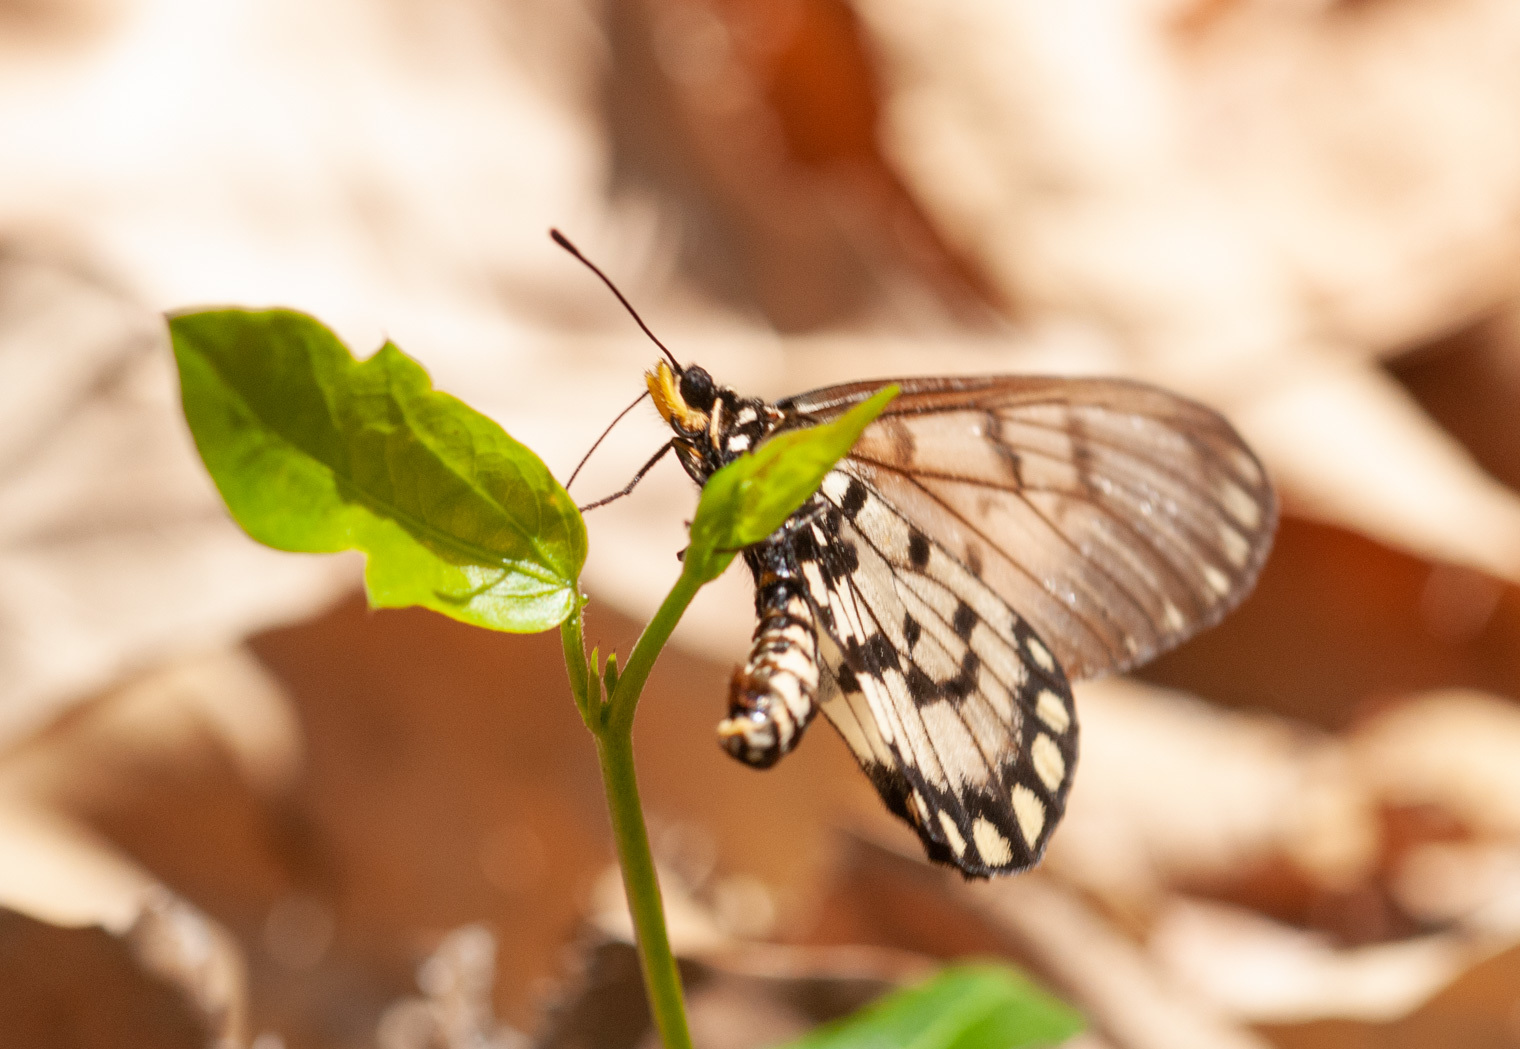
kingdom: Animalia
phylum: Arthropoda
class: Insecta
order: Lepidoptera
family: Nymphalidae
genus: Acraea
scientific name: Acraea andromacha
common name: Glasswing
